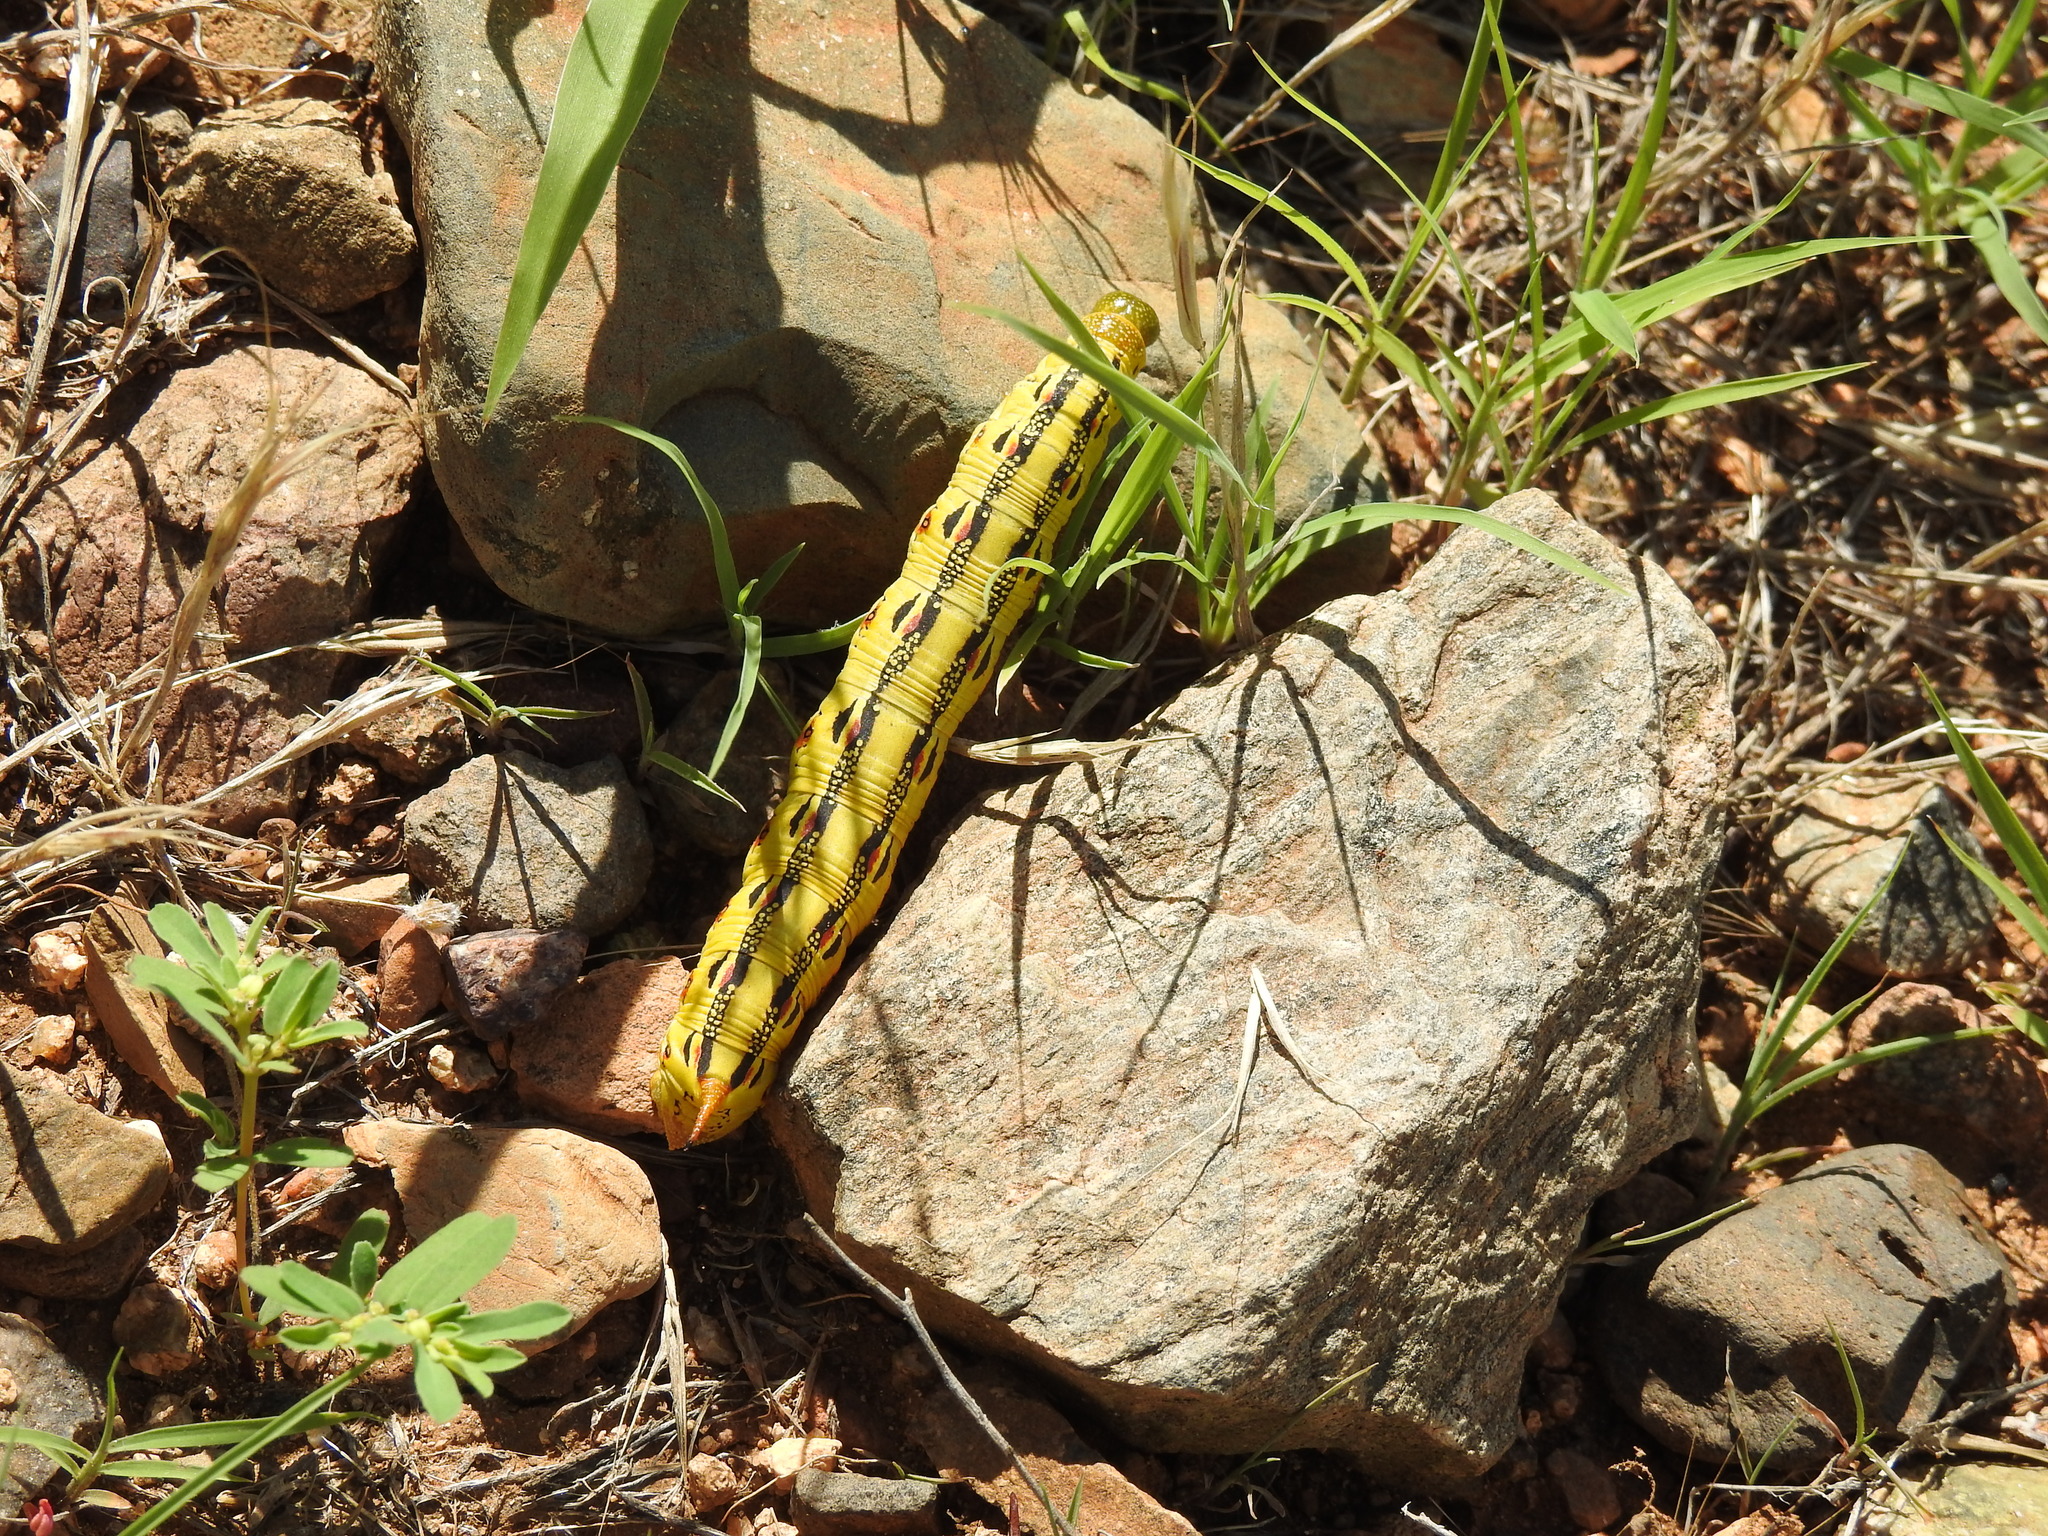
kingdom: Animalia
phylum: Arthropoda
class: Insecta
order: Lepidoptera
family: Sphingidae
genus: Hyles
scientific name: Hyles lineata
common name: White-lined sphinx
